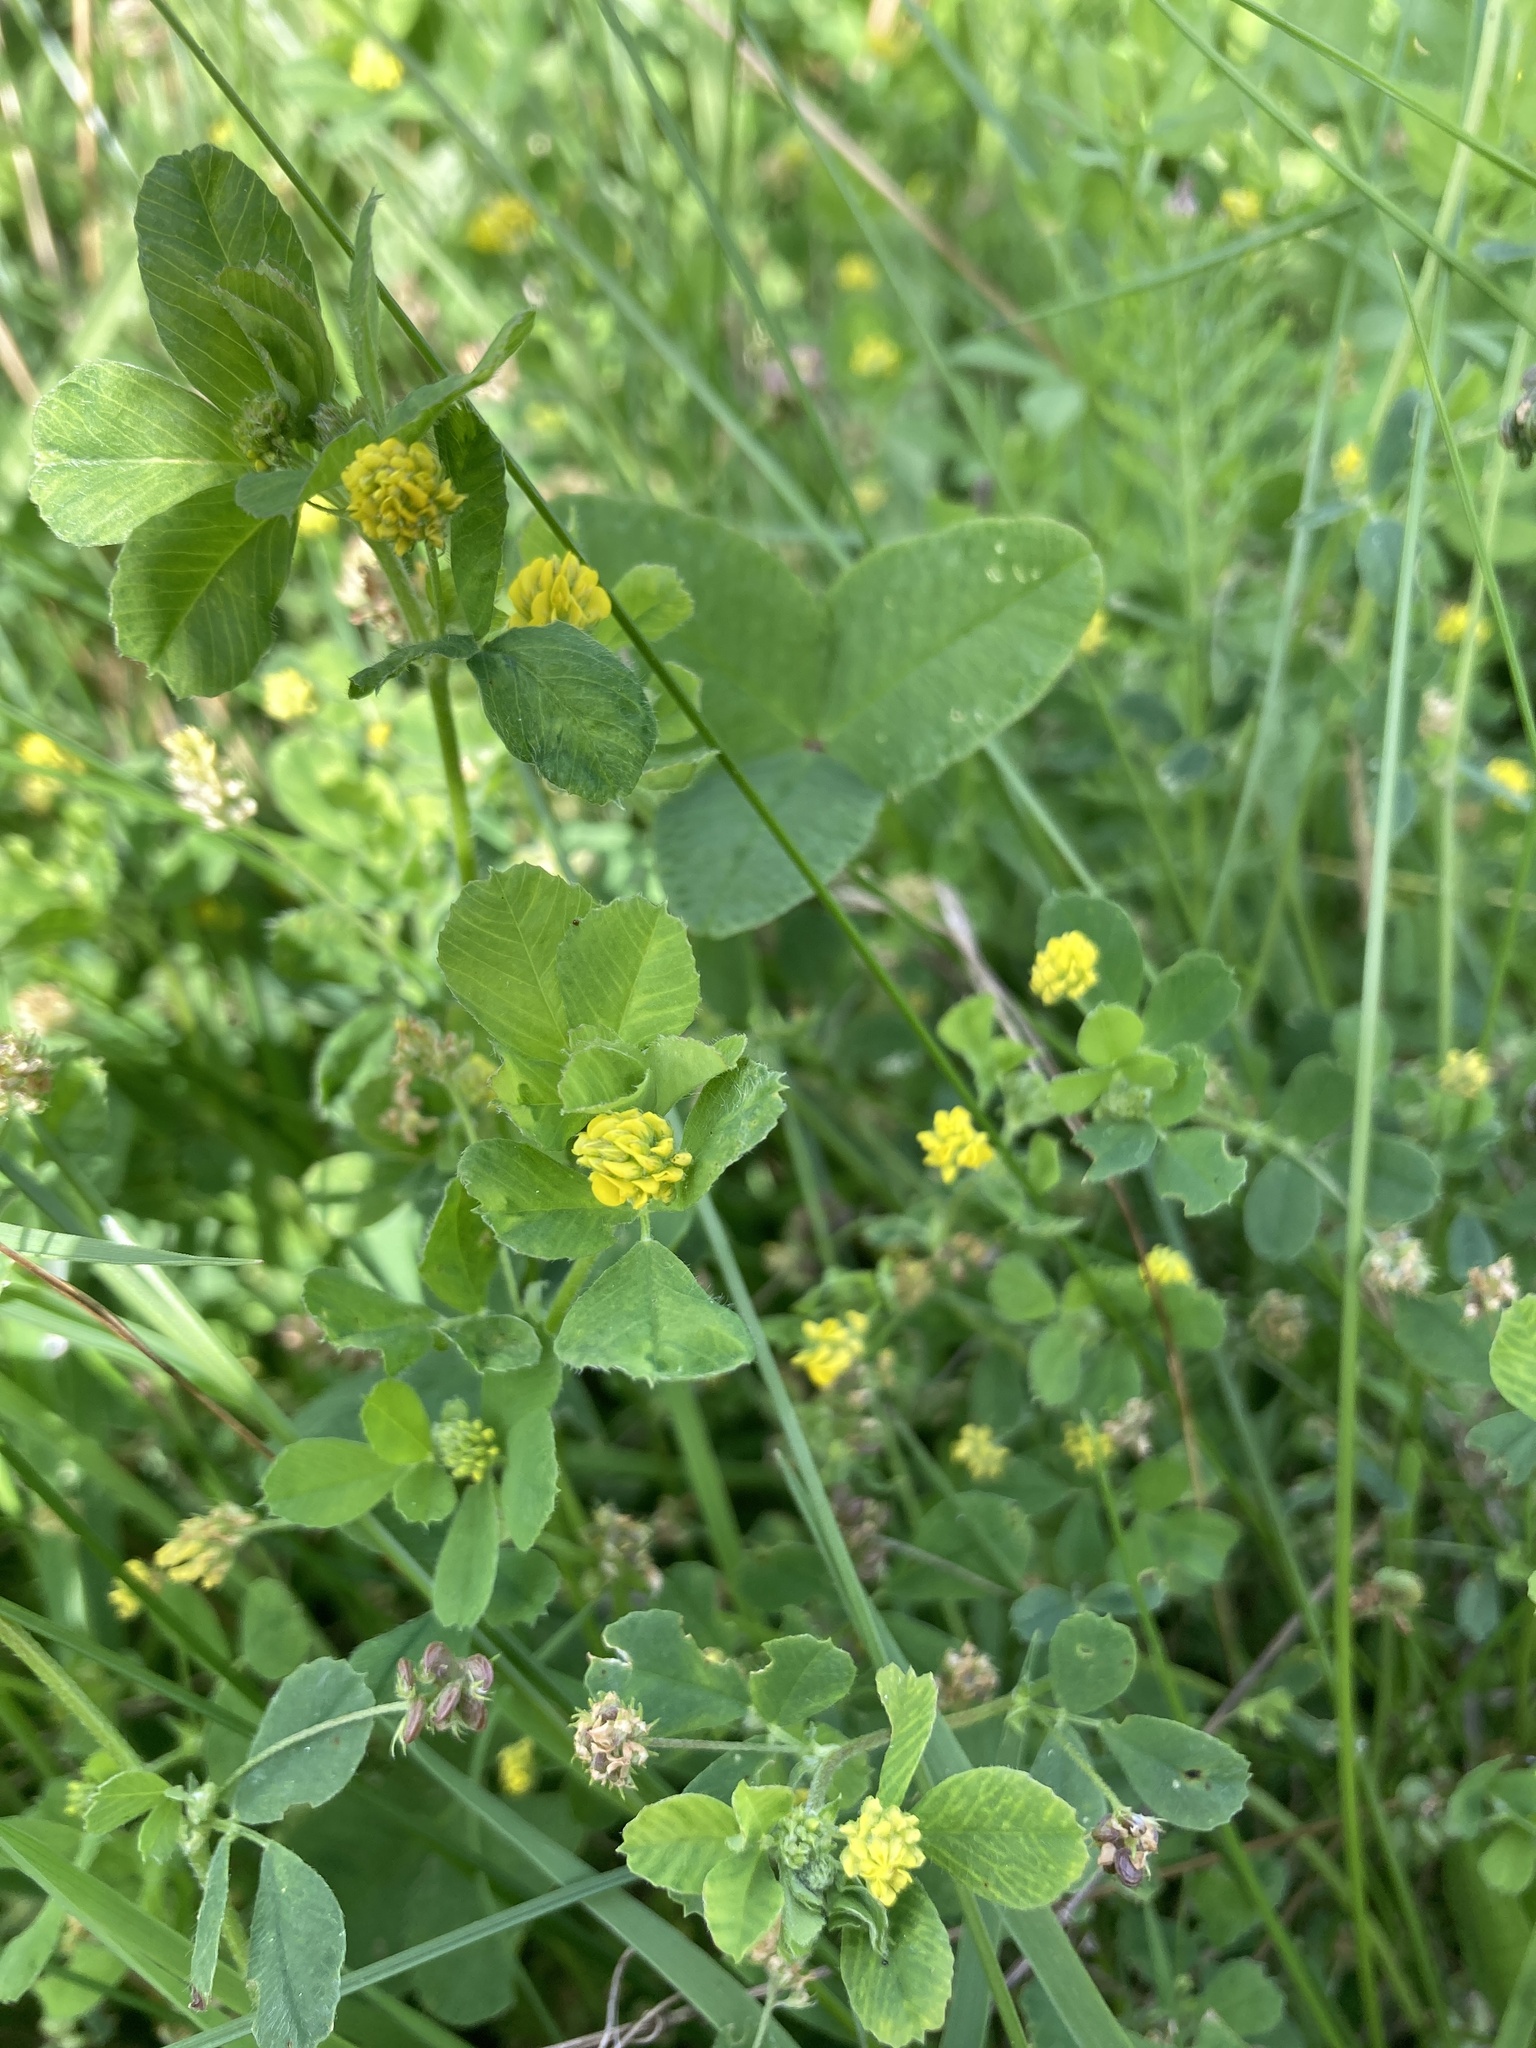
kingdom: Plantae
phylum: Tracheophyta
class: Magnoliopsida
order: Fabales
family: Fabaceae
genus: Medicago
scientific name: Medicago lupulina
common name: Black medick
